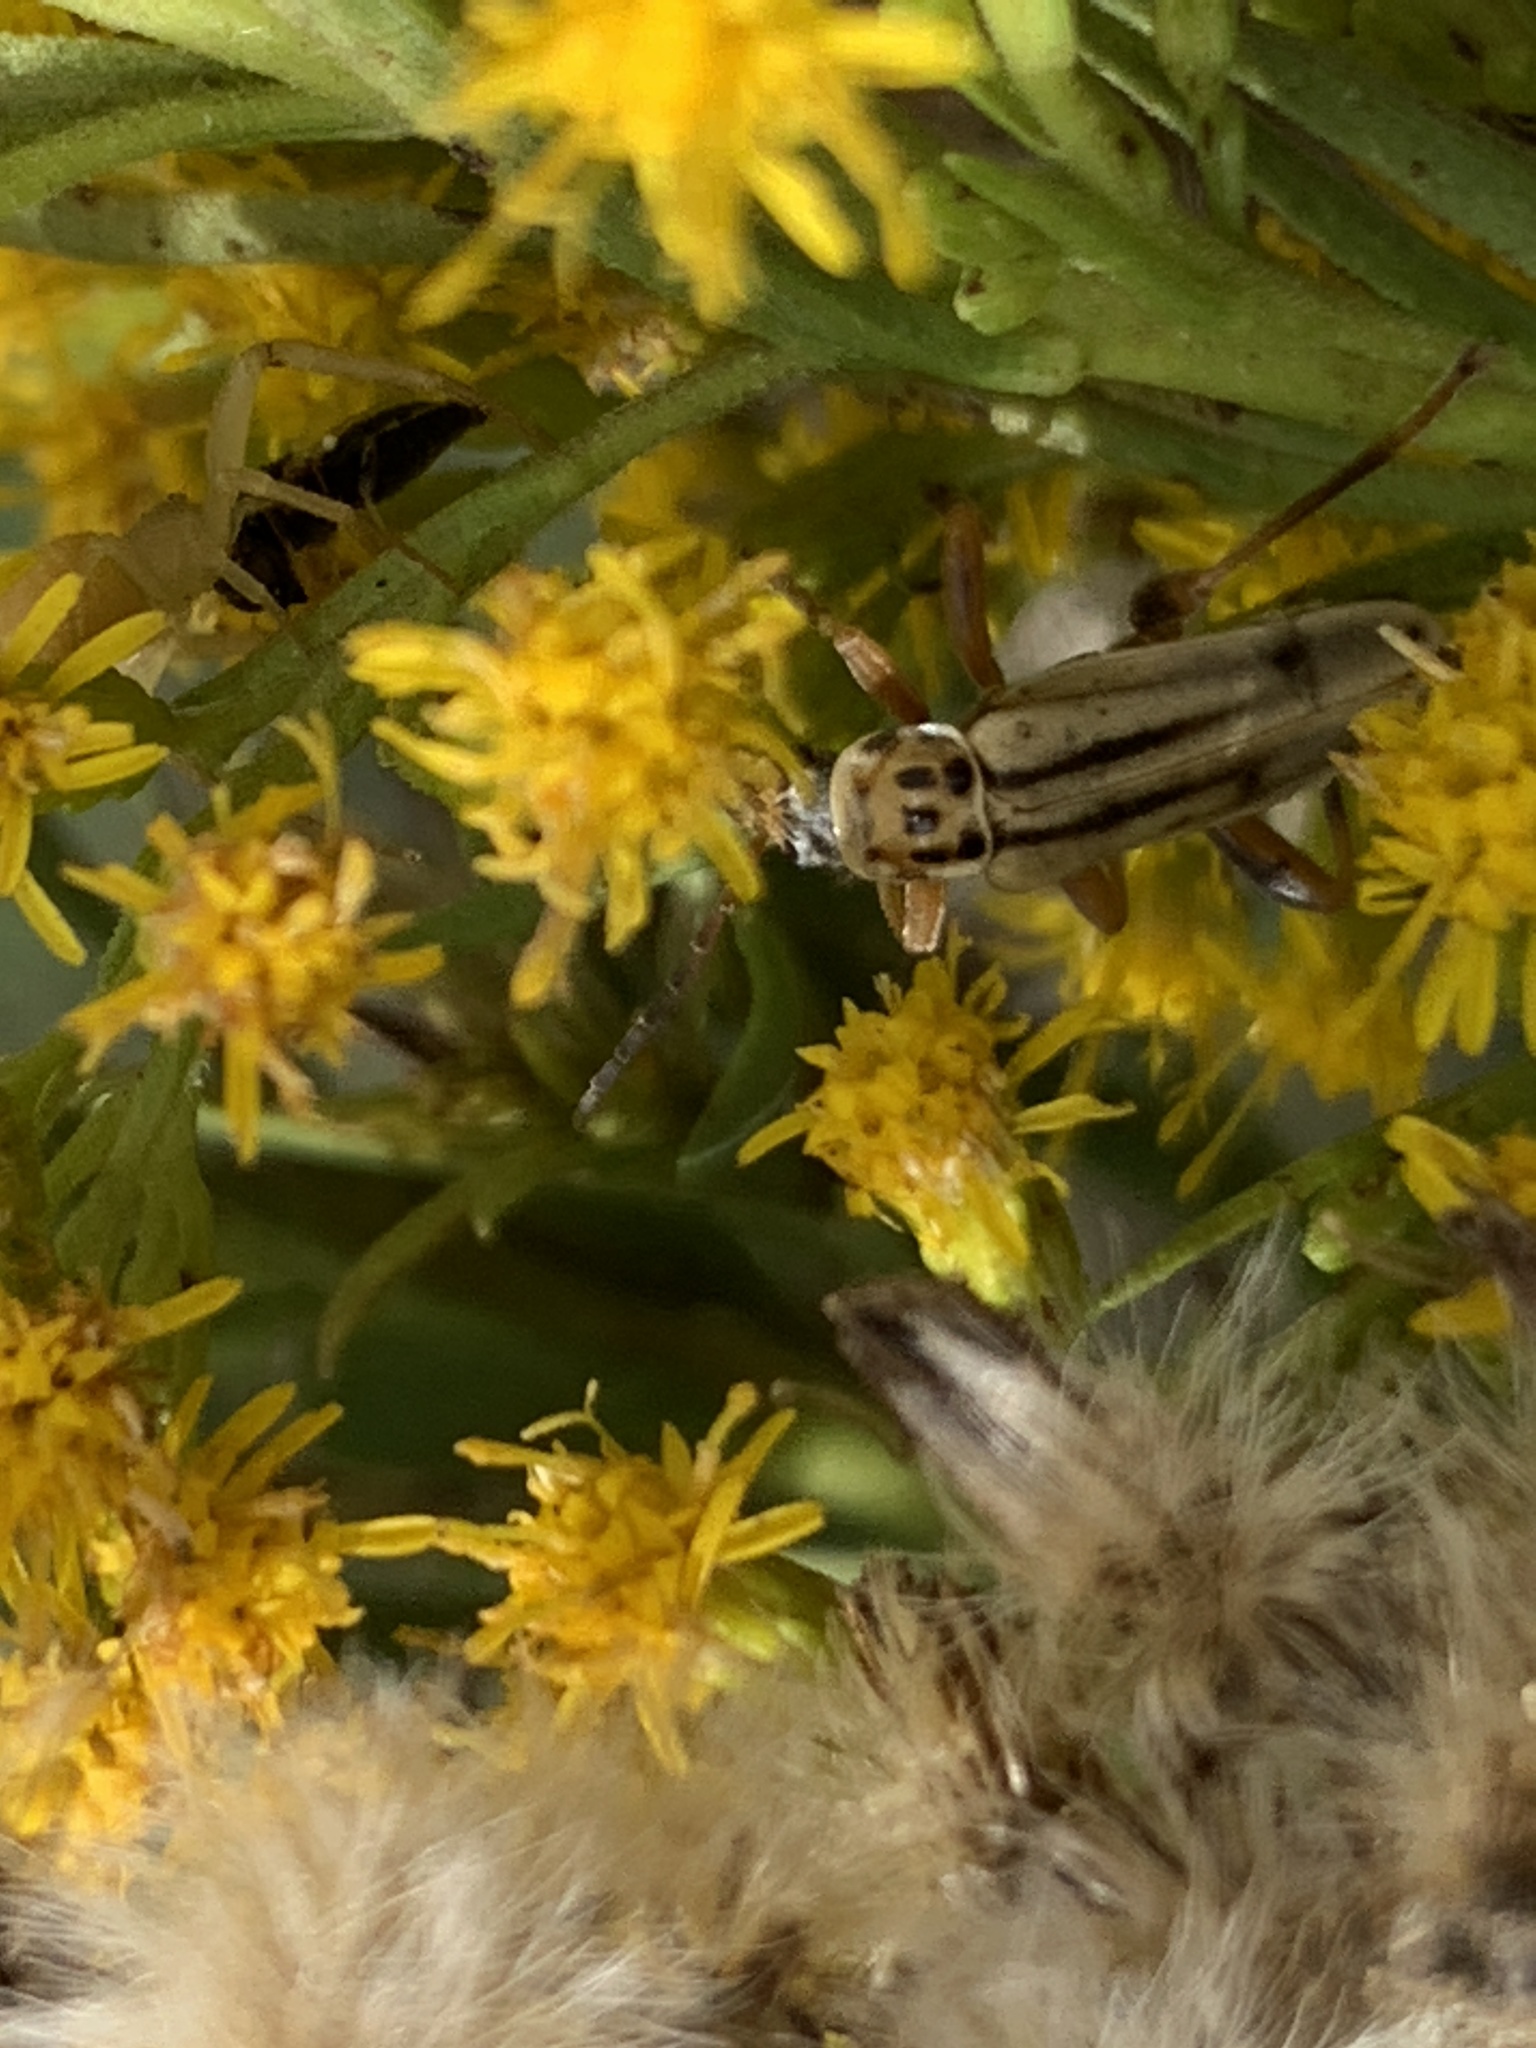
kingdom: Animalia
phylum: Arthropoda
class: Insecta
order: Coleoptera
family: Cantharidae
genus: Chauliognathus
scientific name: Chauliognathus
